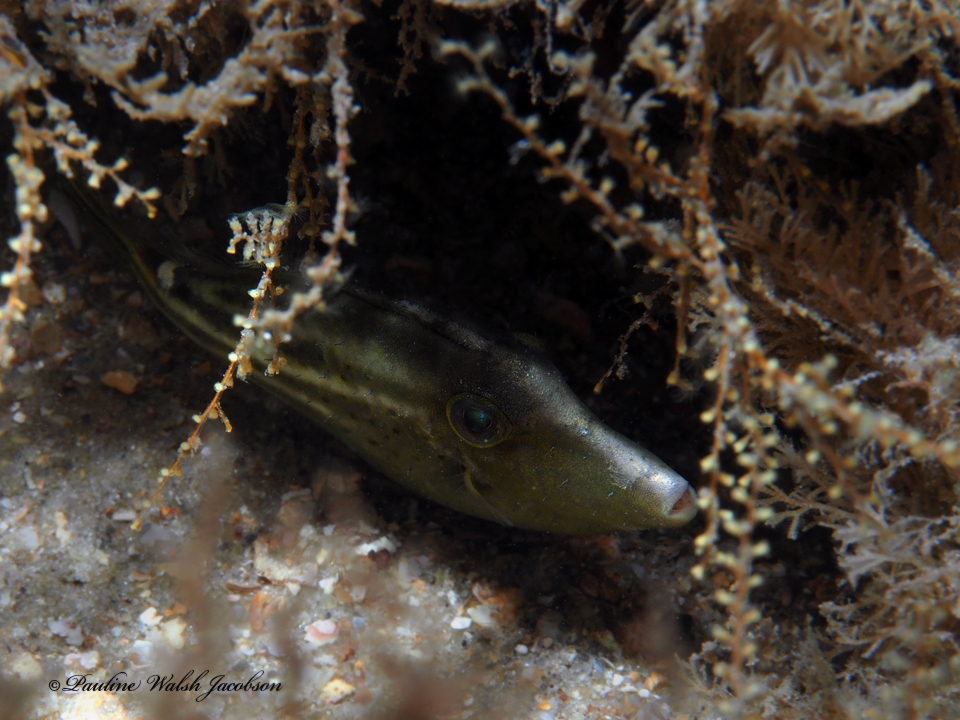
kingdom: Animalia
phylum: Chordata
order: Tetraodontiformes
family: Monacanthidae
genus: Cantherhines
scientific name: Cantherhines pullus
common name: Orangespotted filefish
